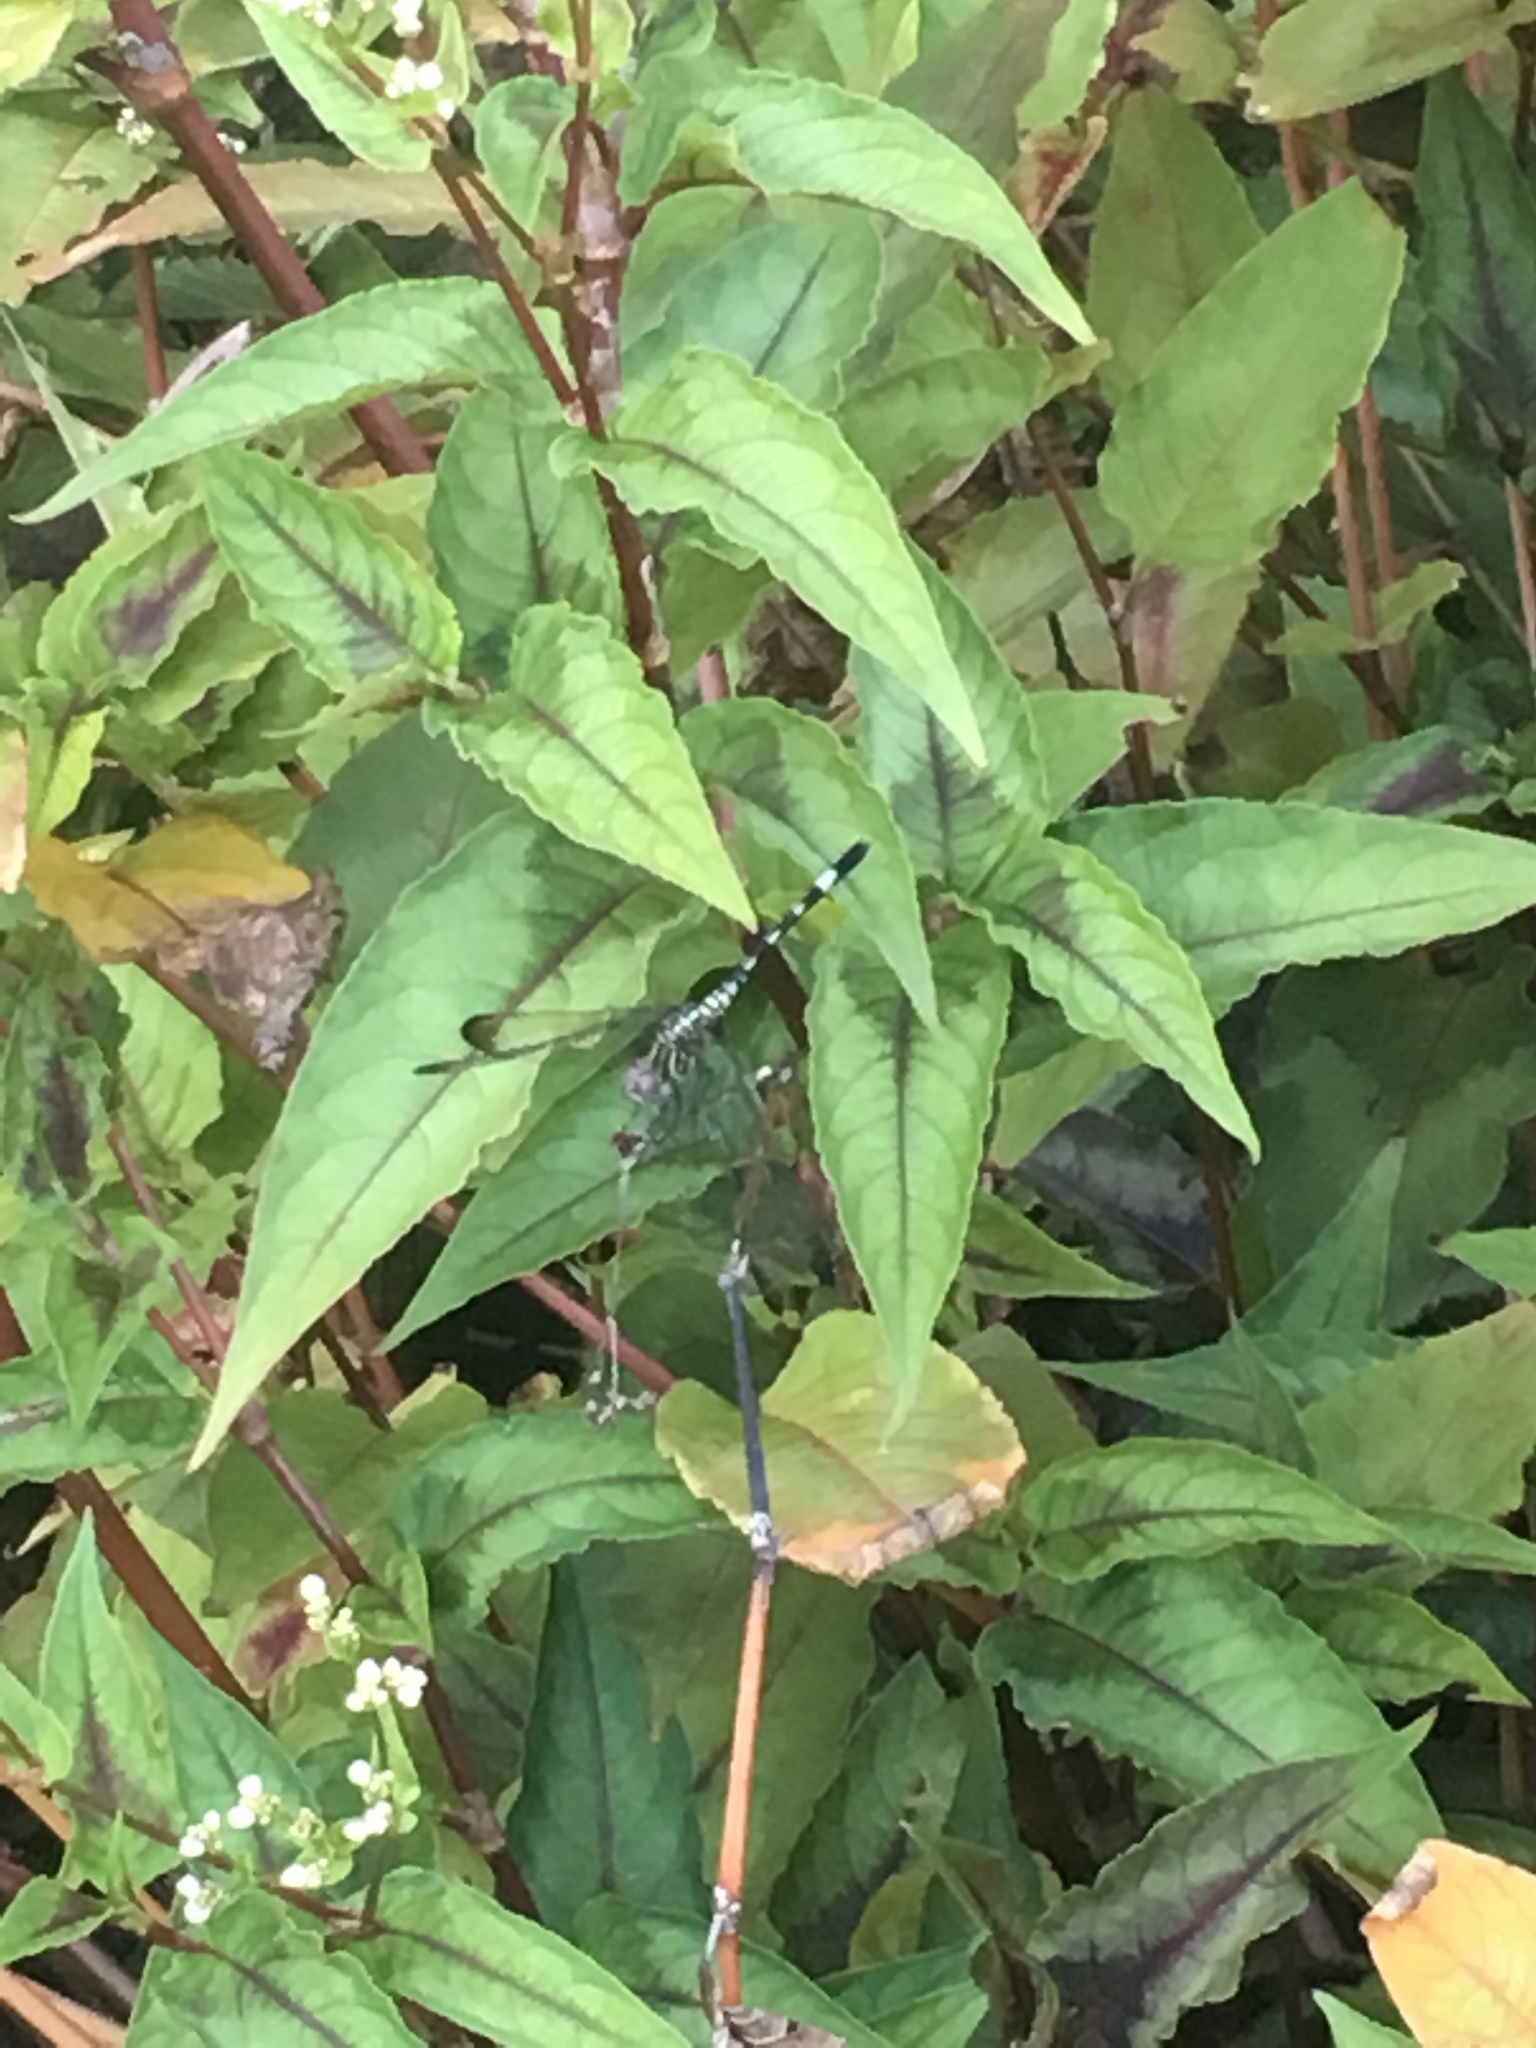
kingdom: Animalia
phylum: Arthropoda
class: Insecta
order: Odonata
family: Libellulidae
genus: Dythemis
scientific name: Dythemis velox
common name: Swift setwing
